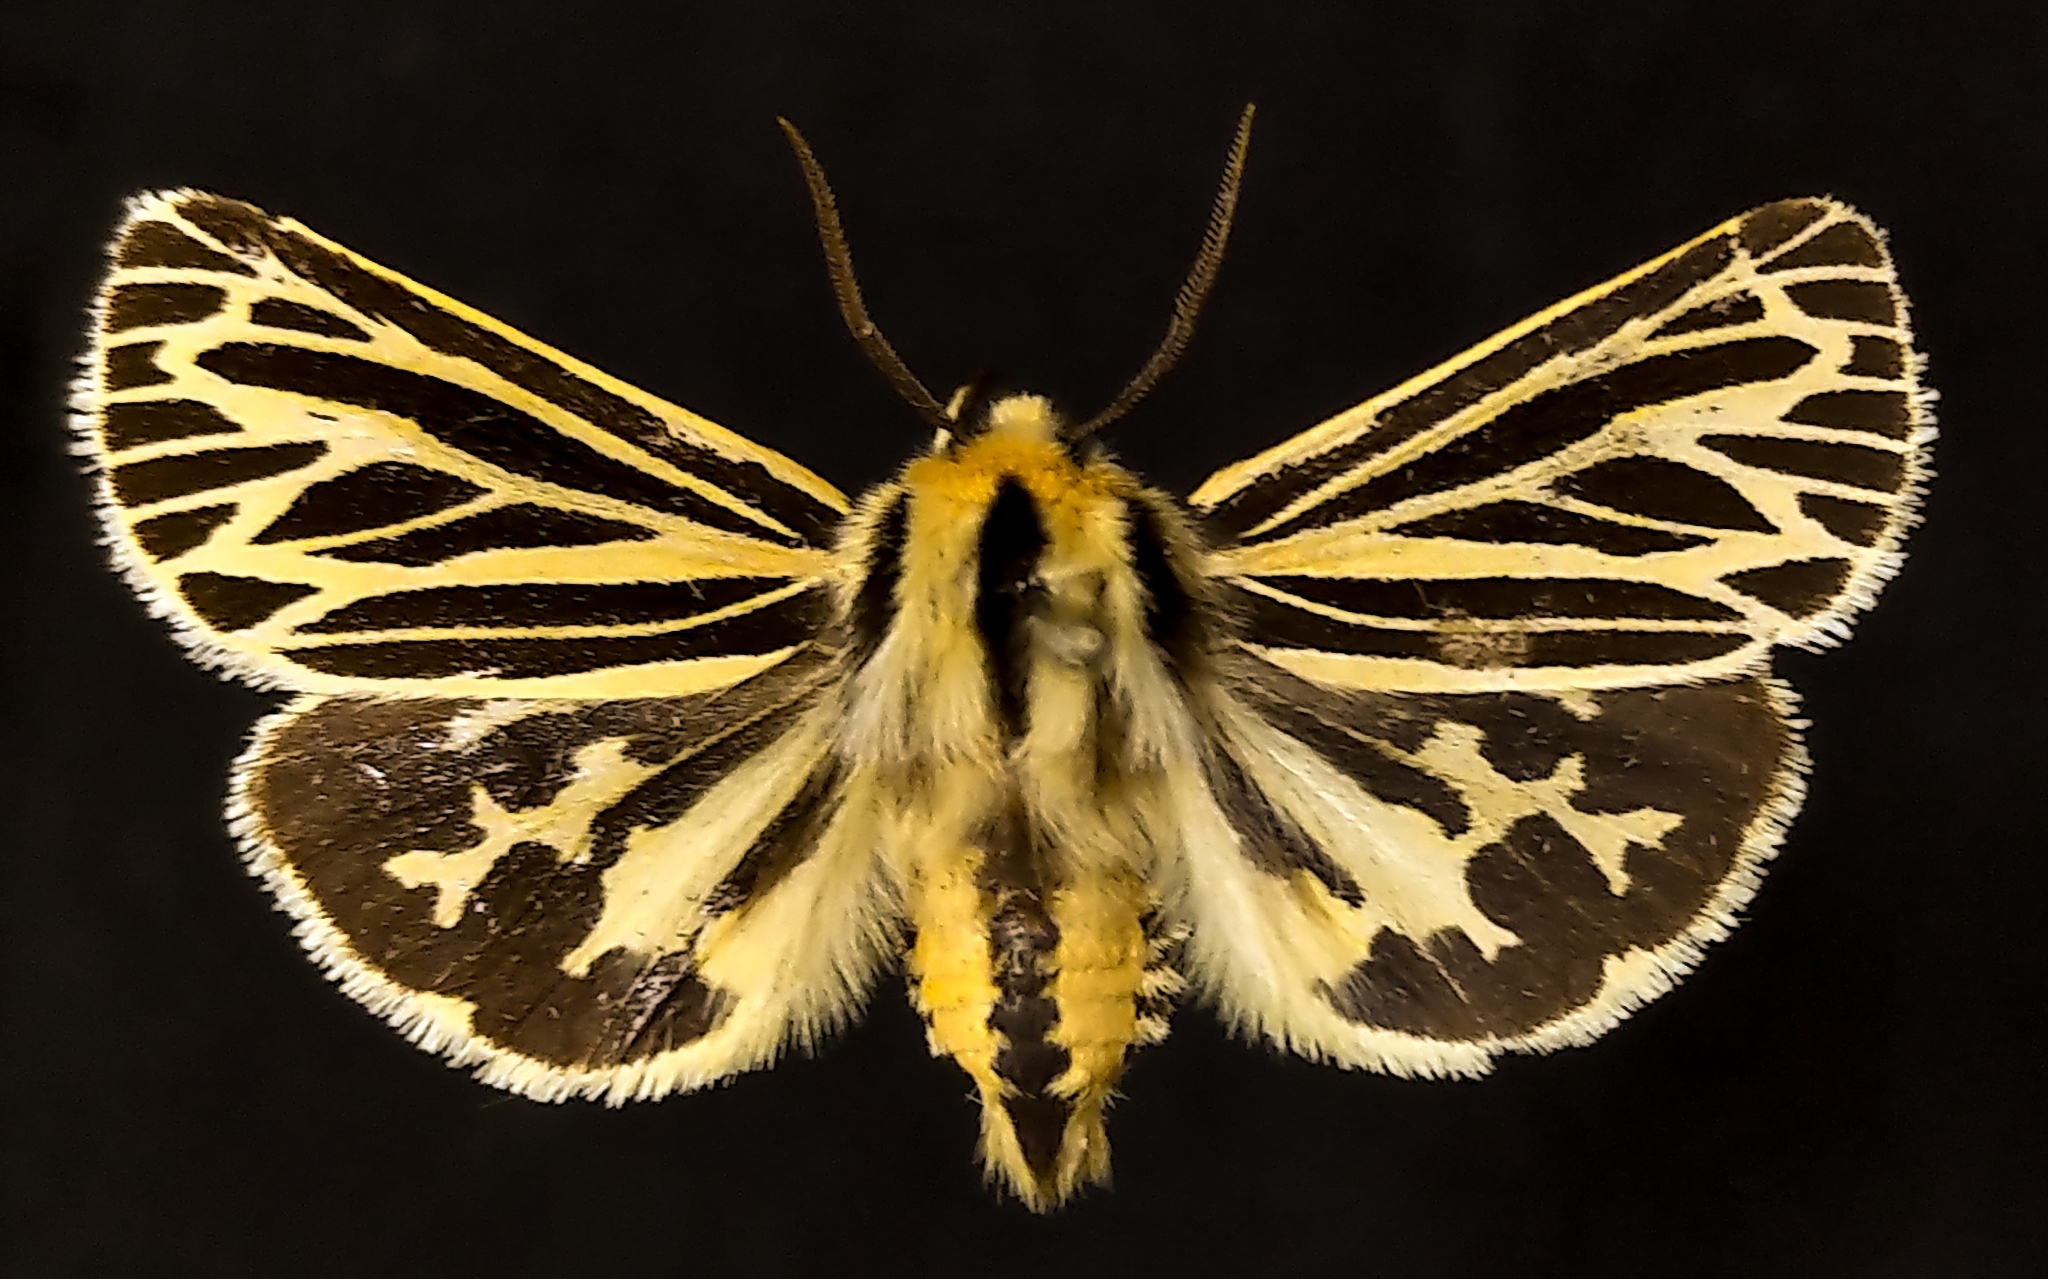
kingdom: Animalia
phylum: Arthropoda
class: Insecta
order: Lepidoptera
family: Erebidae
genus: Grammia
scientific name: Grammia virguncula
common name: Little tiger moth
